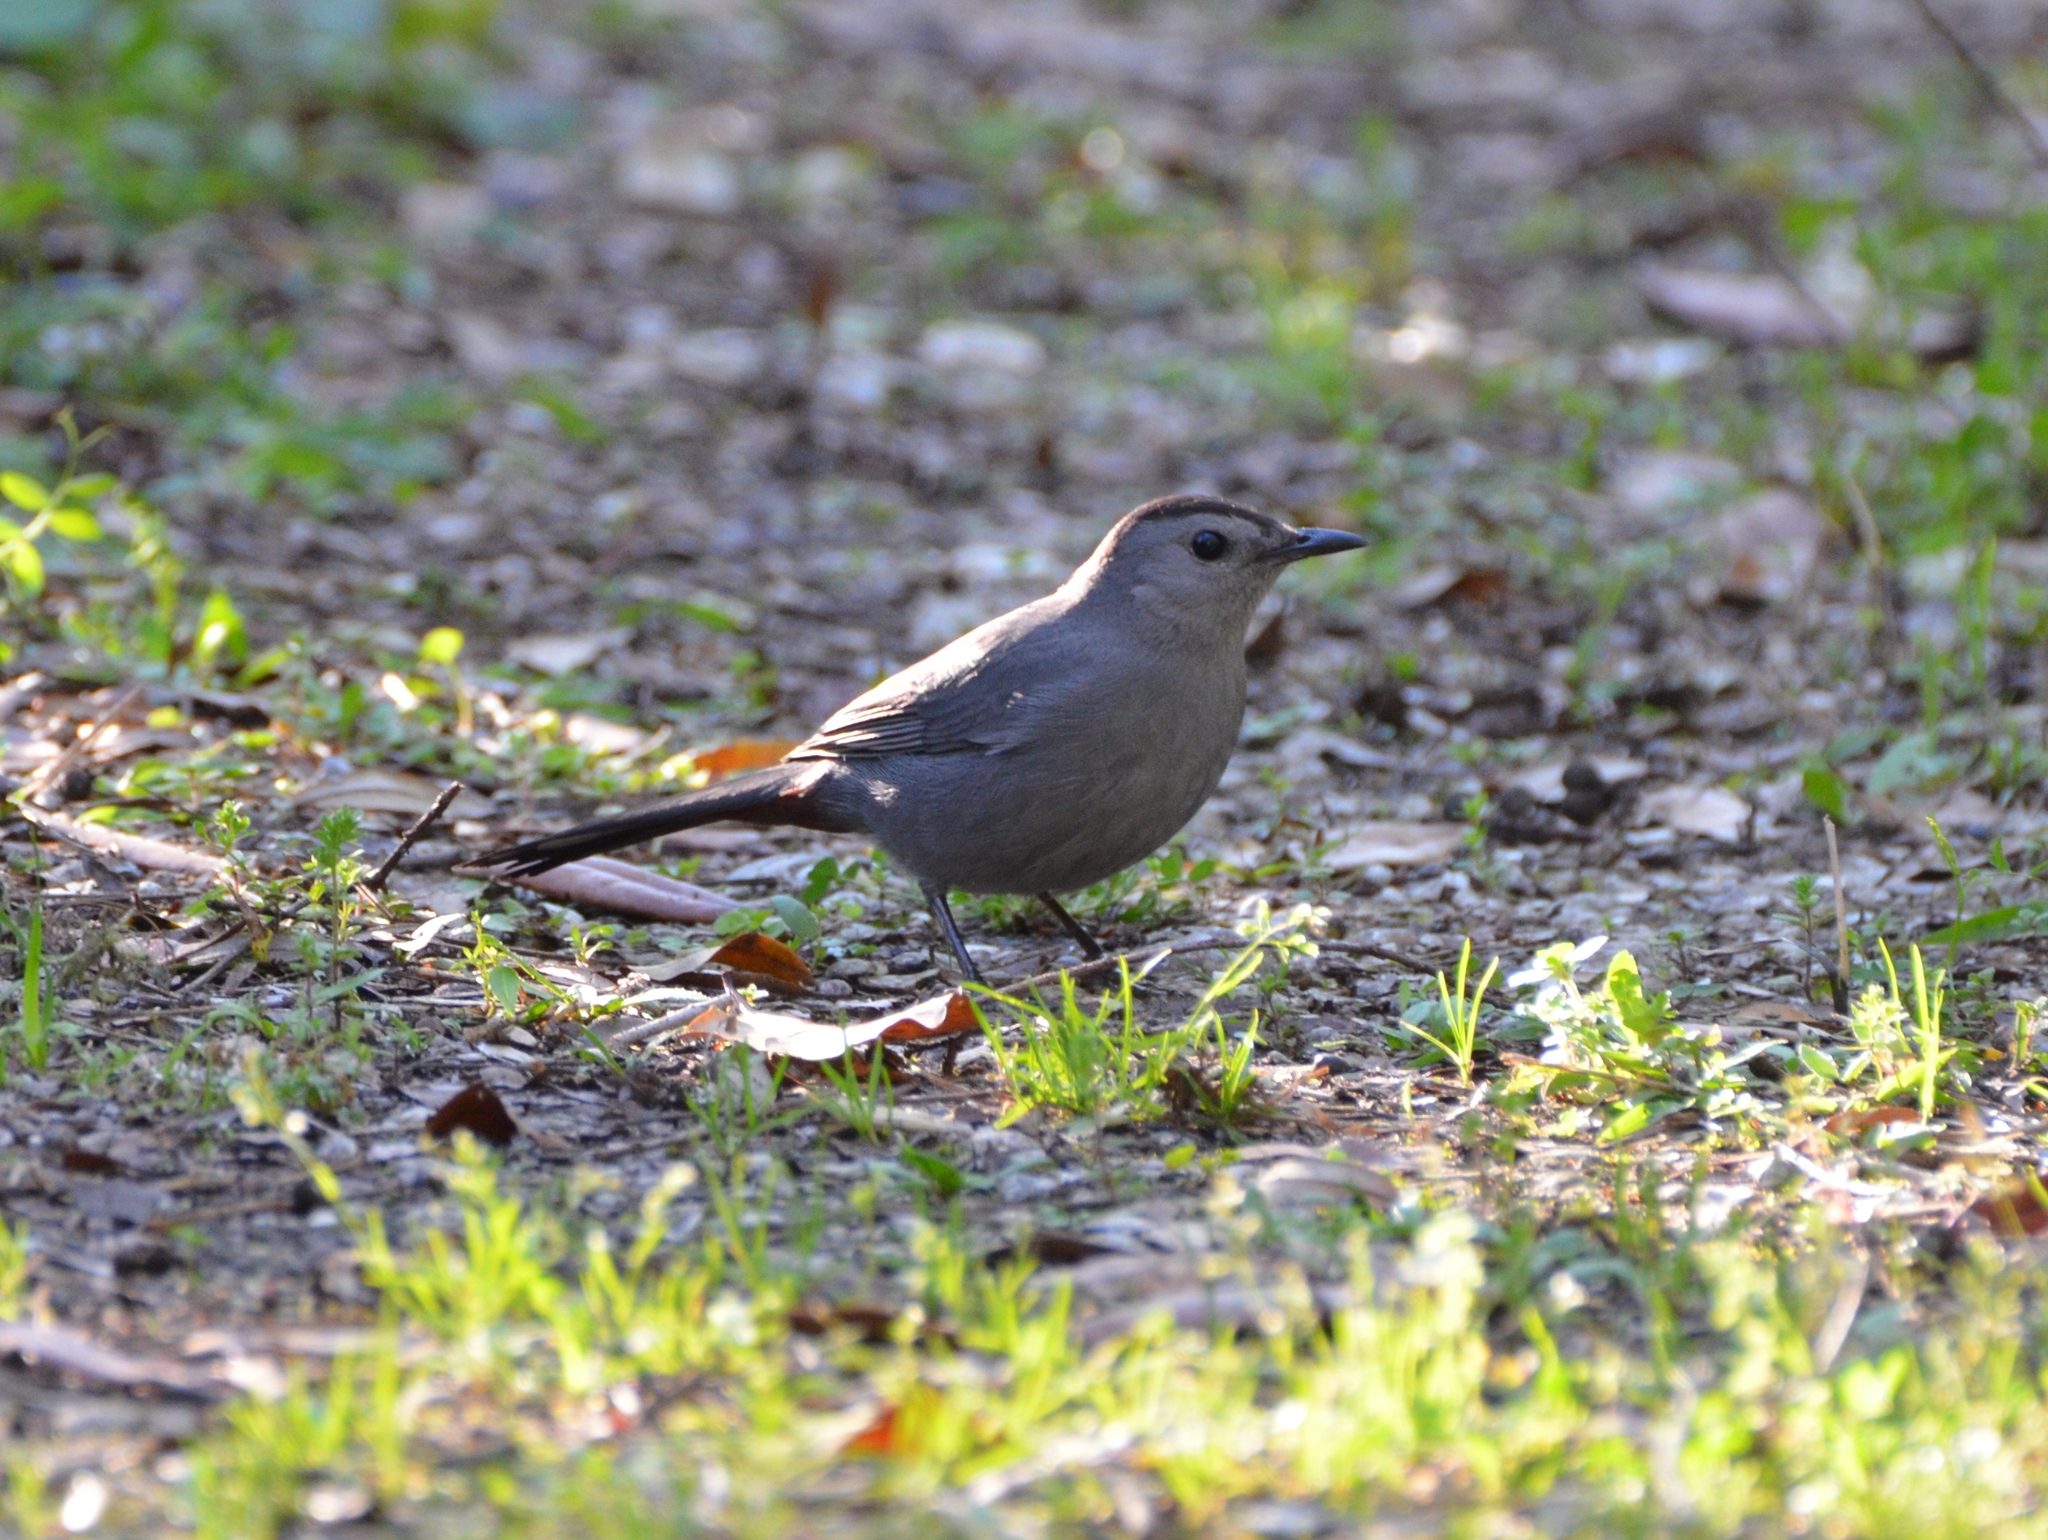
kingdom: Animalia
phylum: Chordata
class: Aves
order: Passeriformes
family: Mimidae
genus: Dumetella
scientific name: Dumetella carolinensis
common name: Gray catbird
